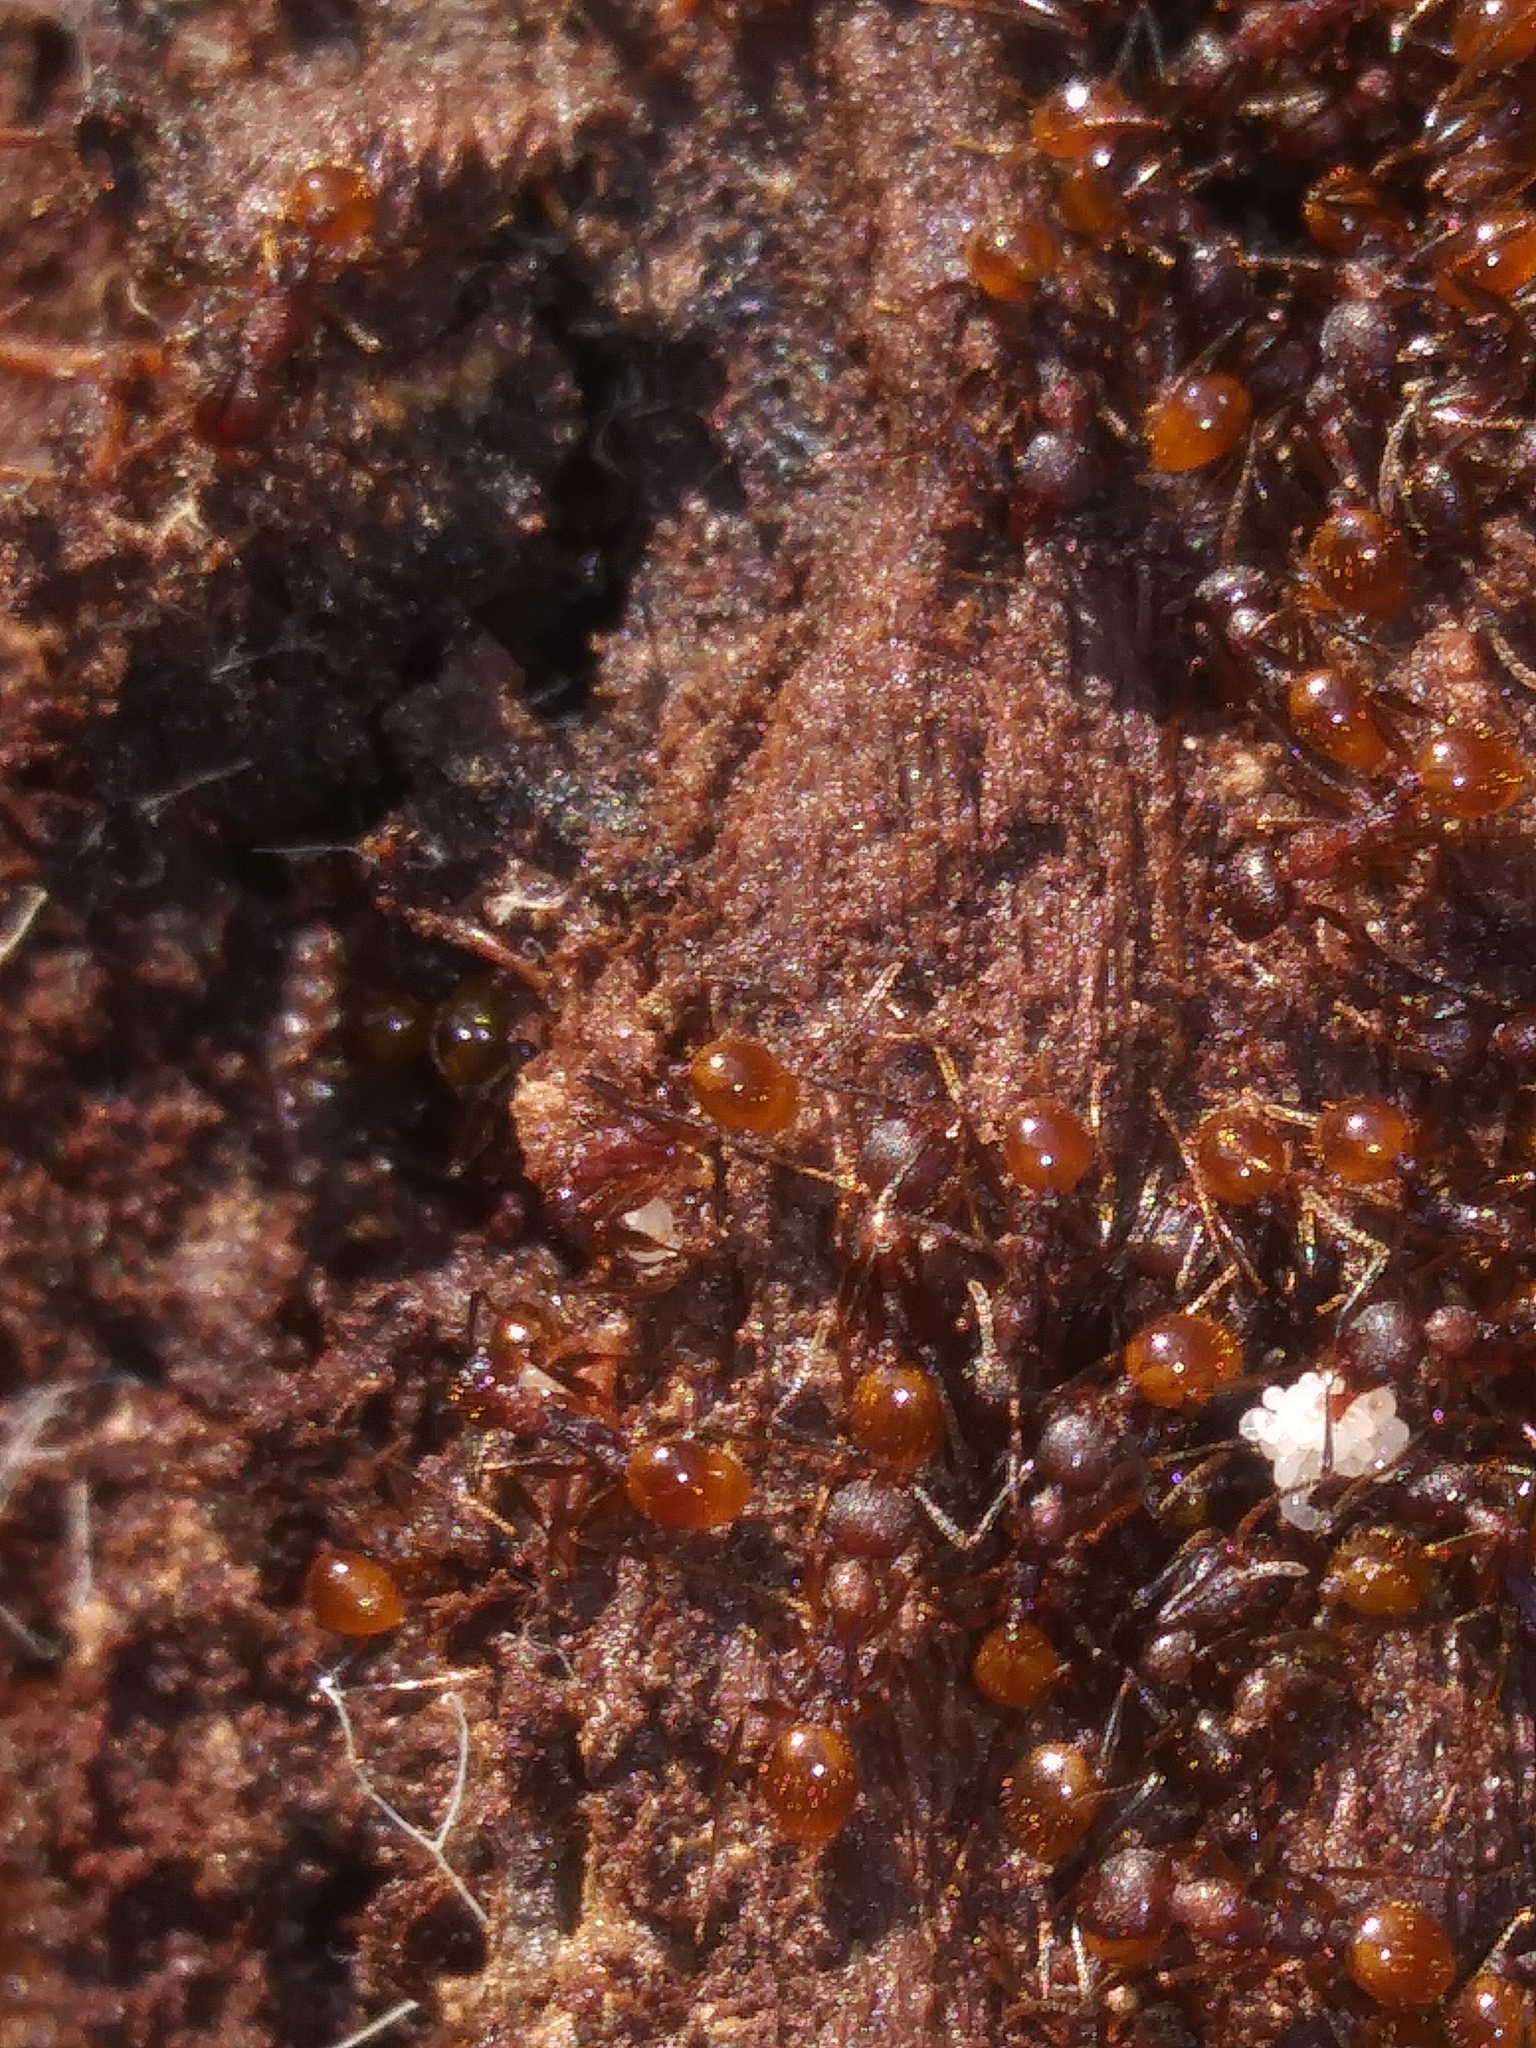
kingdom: Animalia
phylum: Arthropoda
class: Insecta
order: Hymenoptera
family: Formicidae
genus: Aphaenogaster
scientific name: Aphaenogaster fulva
